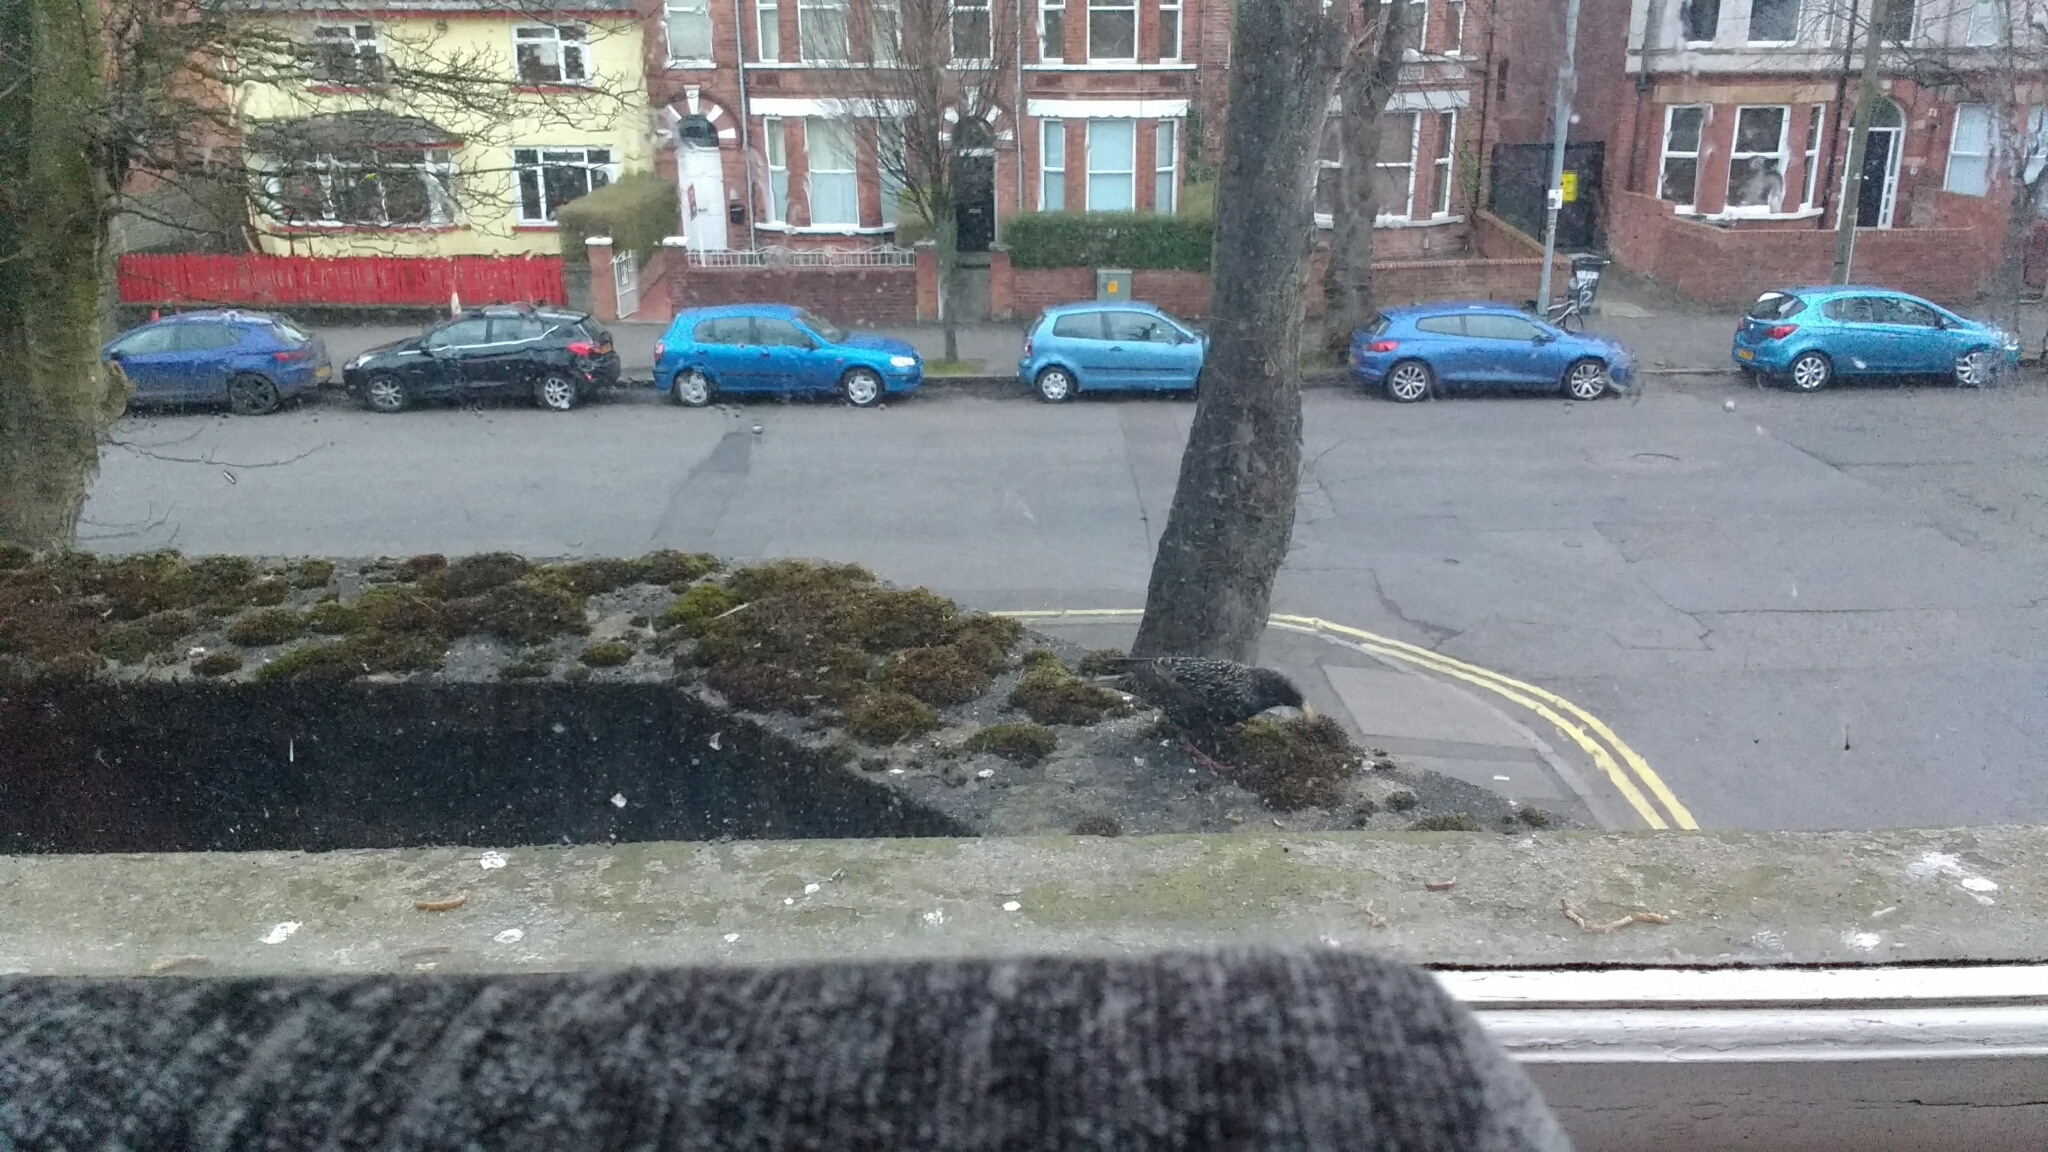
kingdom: Animalia
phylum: Chordata
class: Aves
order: Passeriformes
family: Sturnidae
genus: Sturnus
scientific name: Sturnus vulgaris
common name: Common starling
